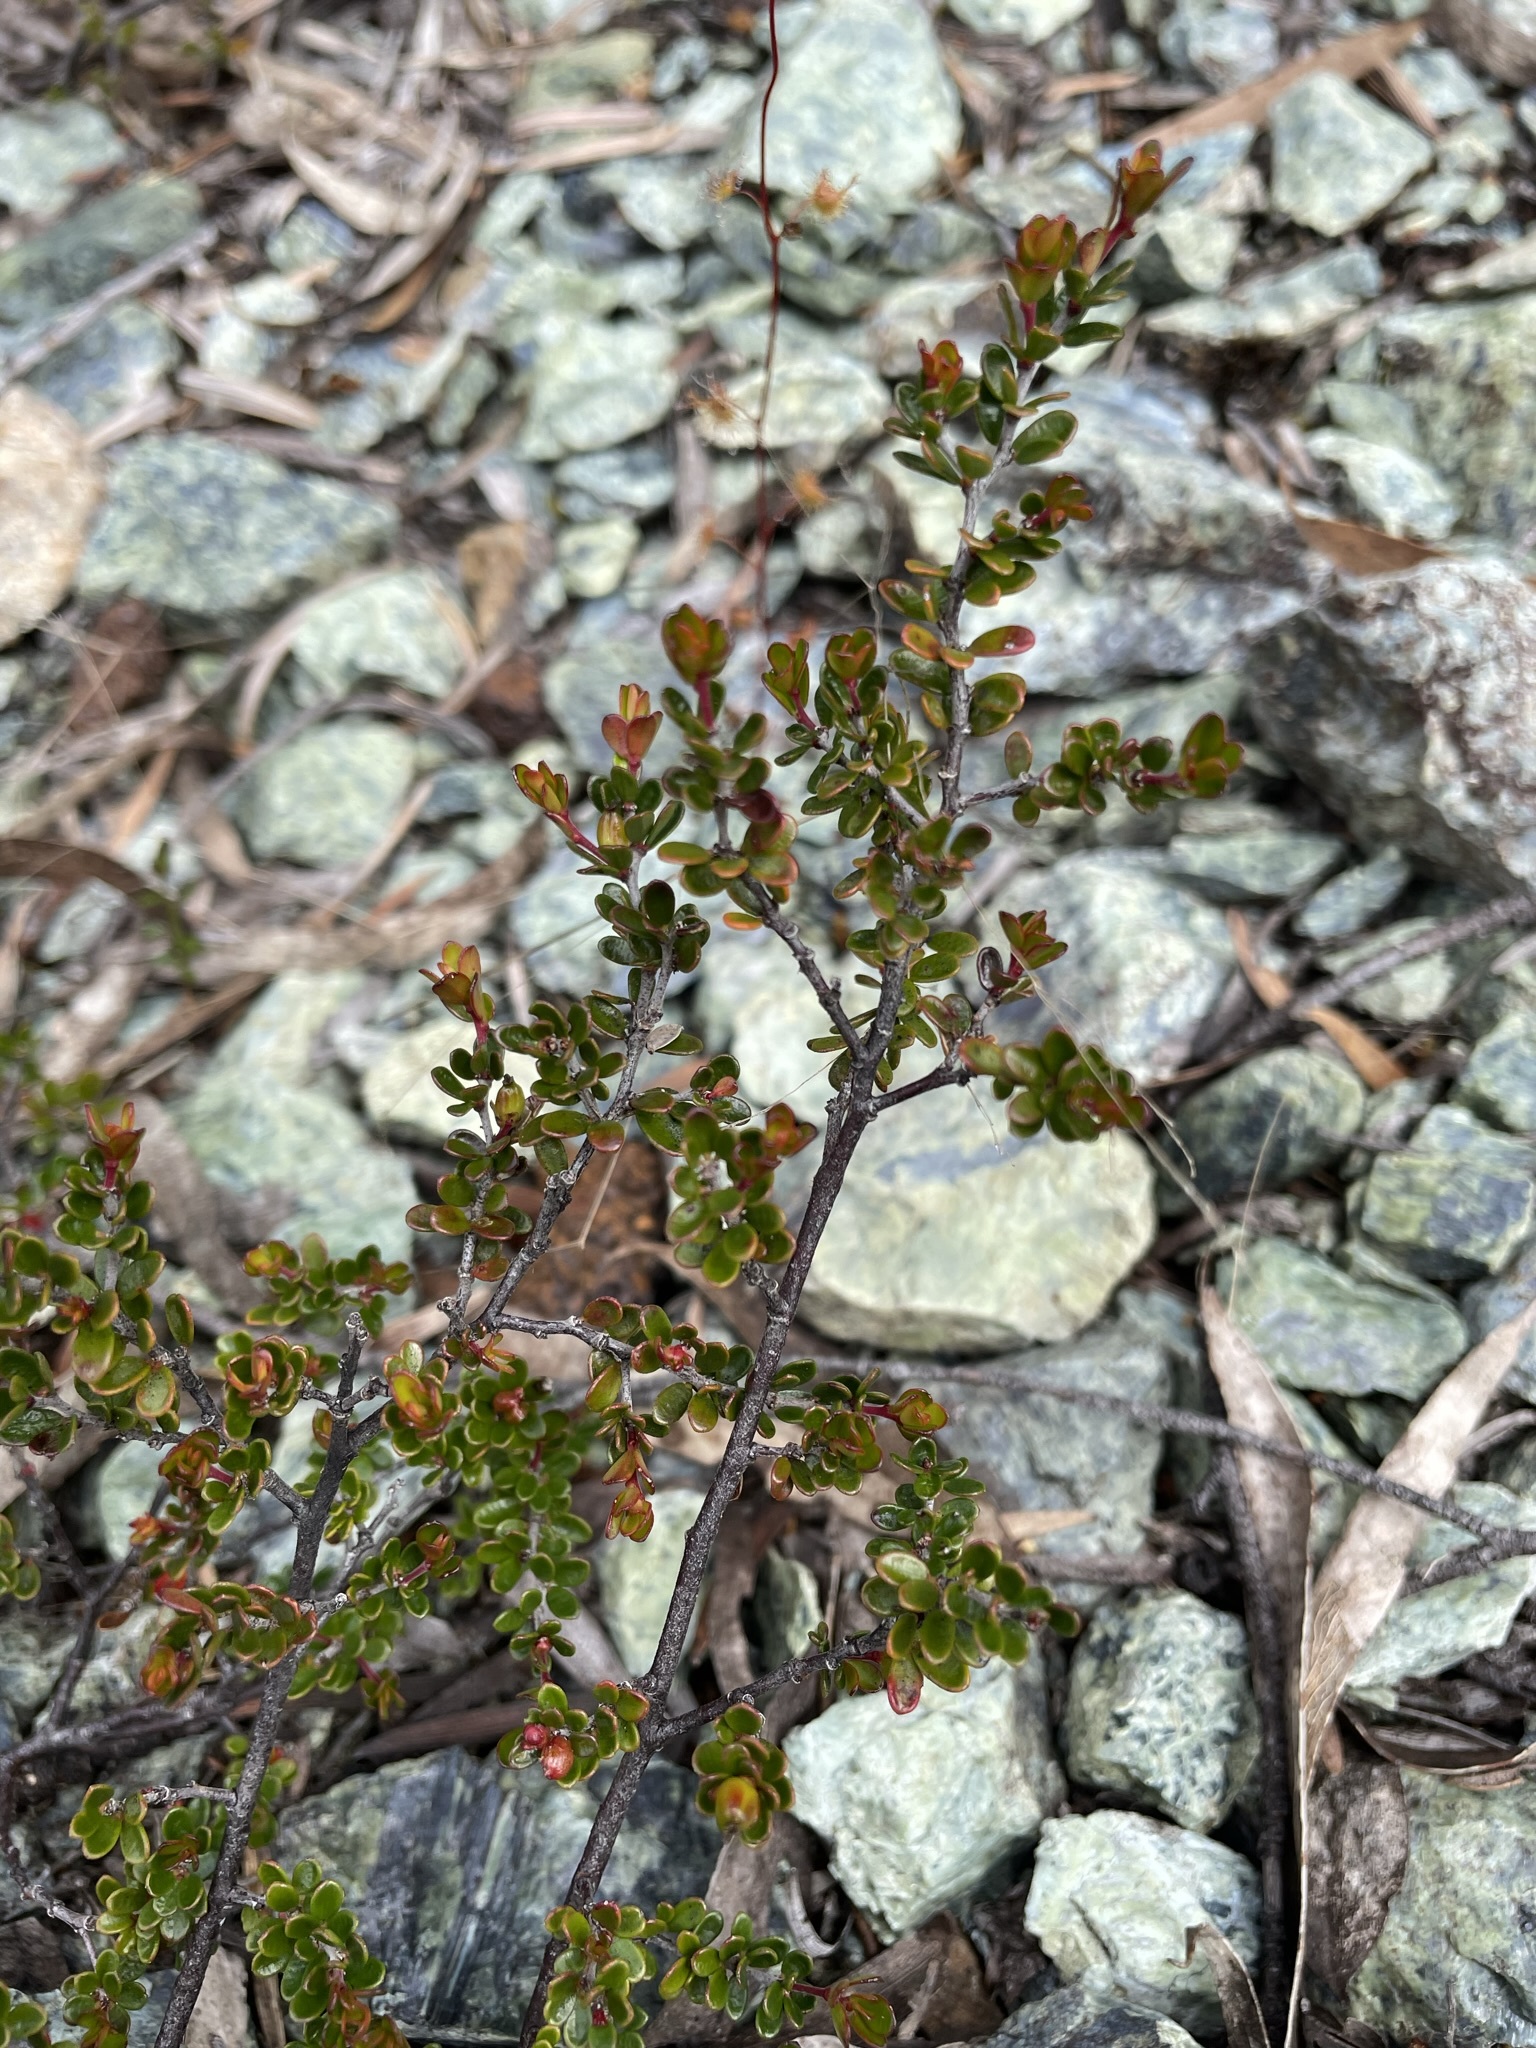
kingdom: Plantae
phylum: Tracheophyta
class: Magnoliopsida
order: Malpighiales
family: Picrodendraceae
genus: Micrantheum
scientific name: Micrantheum serpentinum
